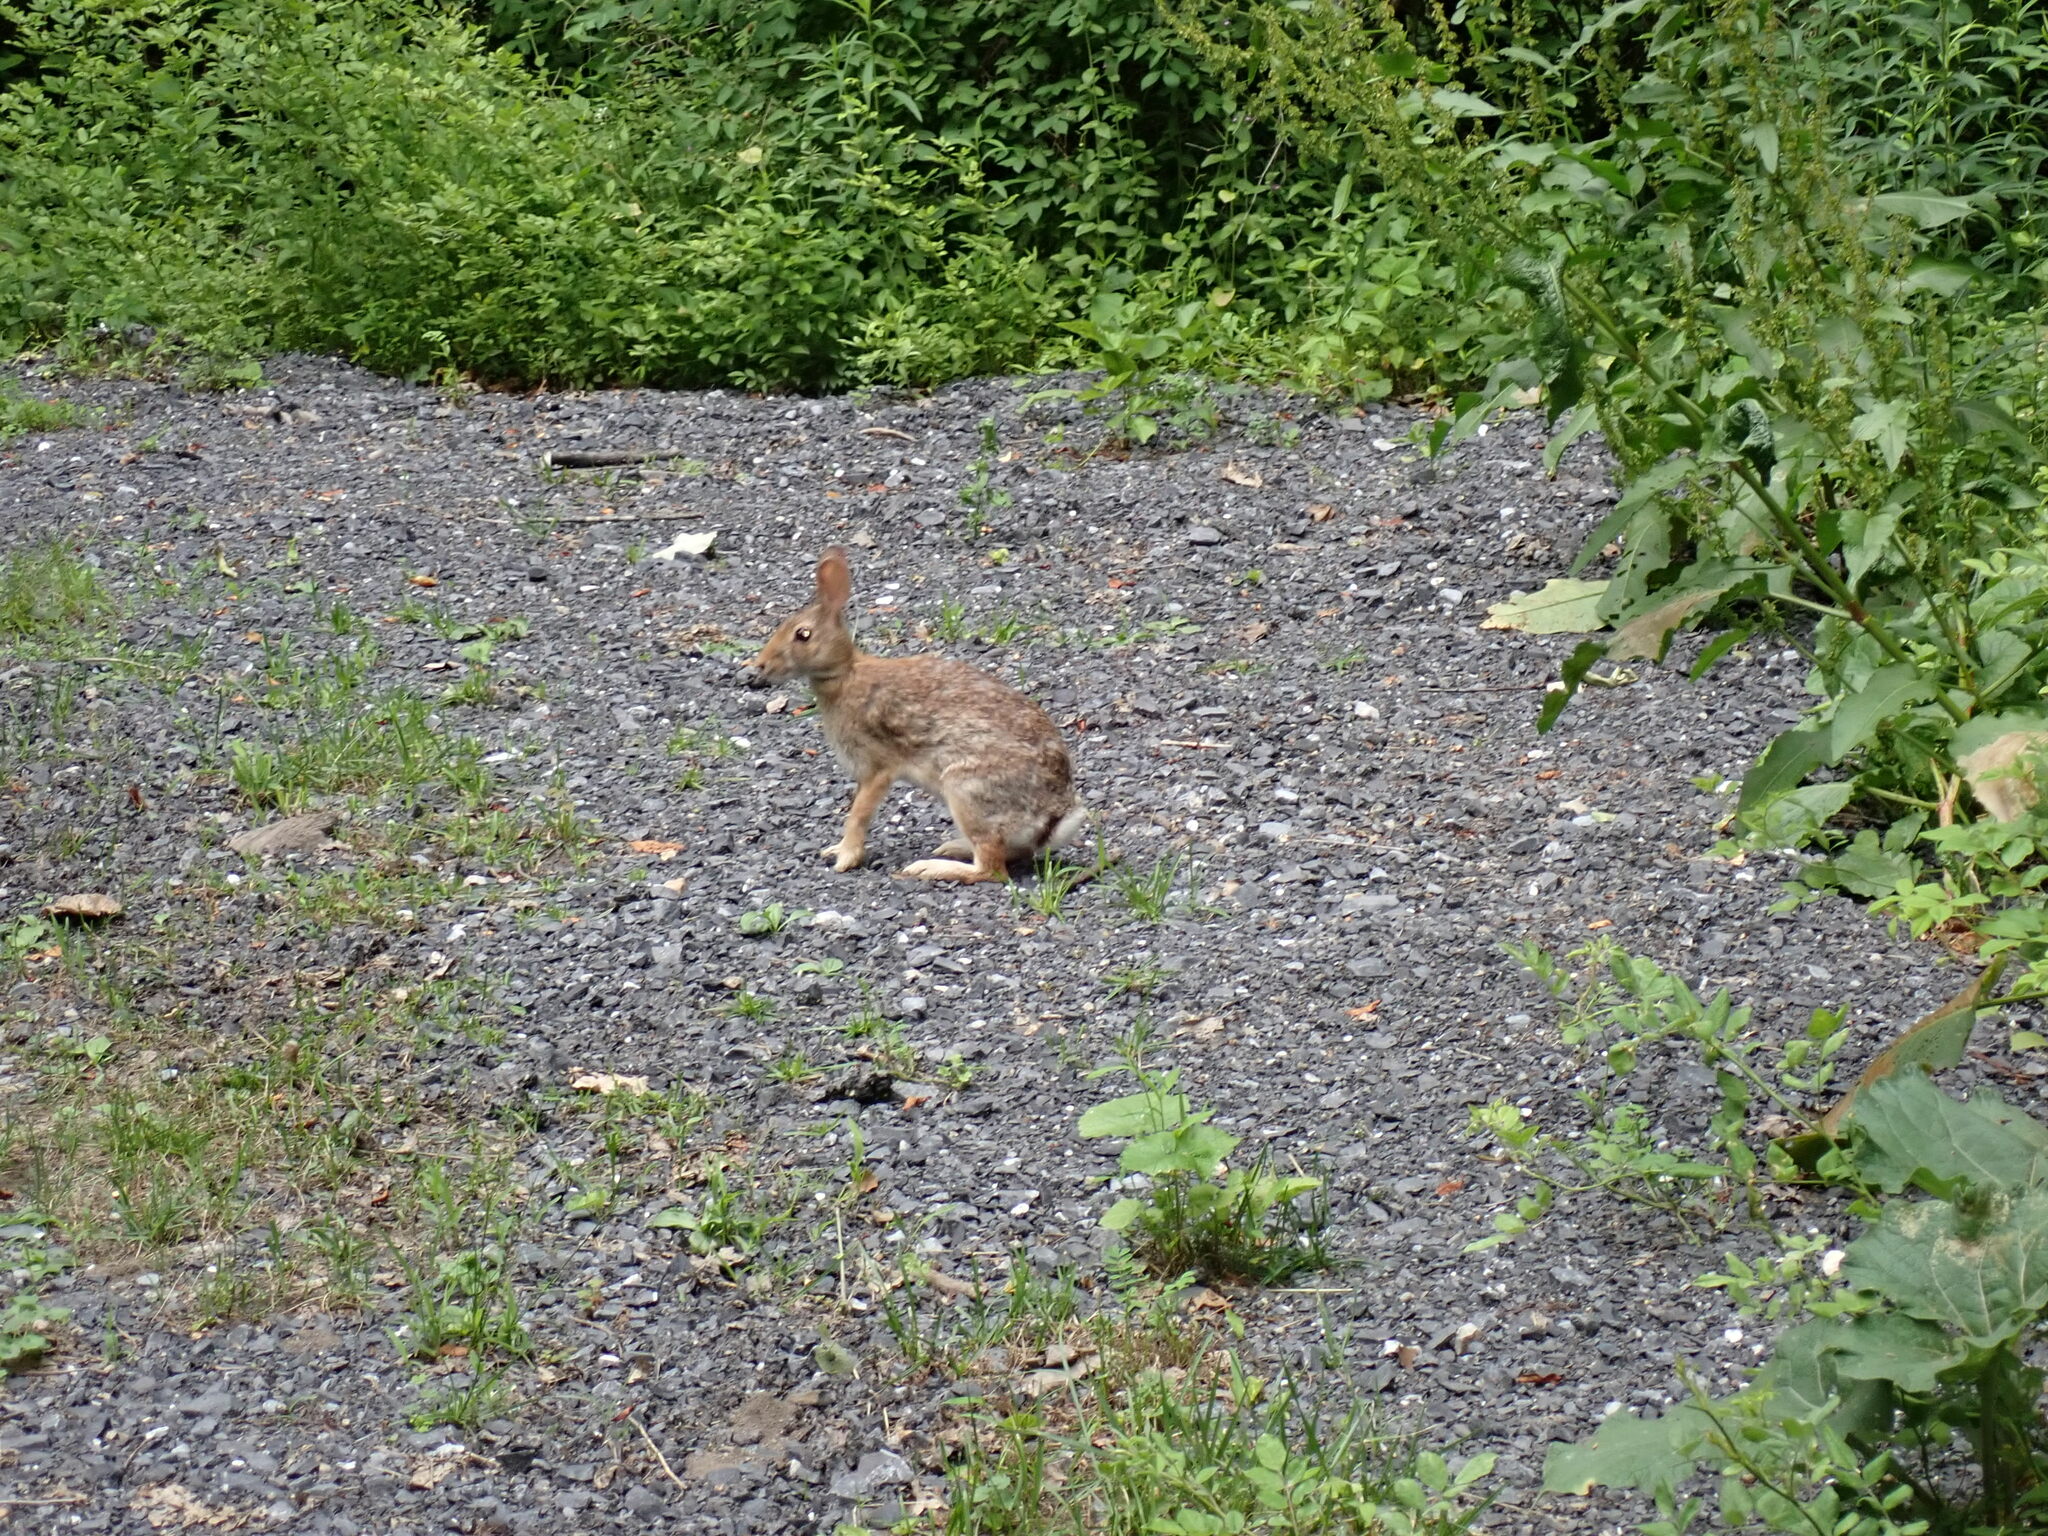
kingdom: Animalia
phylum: Chordata
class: Mammalia
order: Lagomorpha
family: Leporidae
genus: Sylvilagus
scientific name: Sylvilagus floridanus
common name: Eastern cottontail
